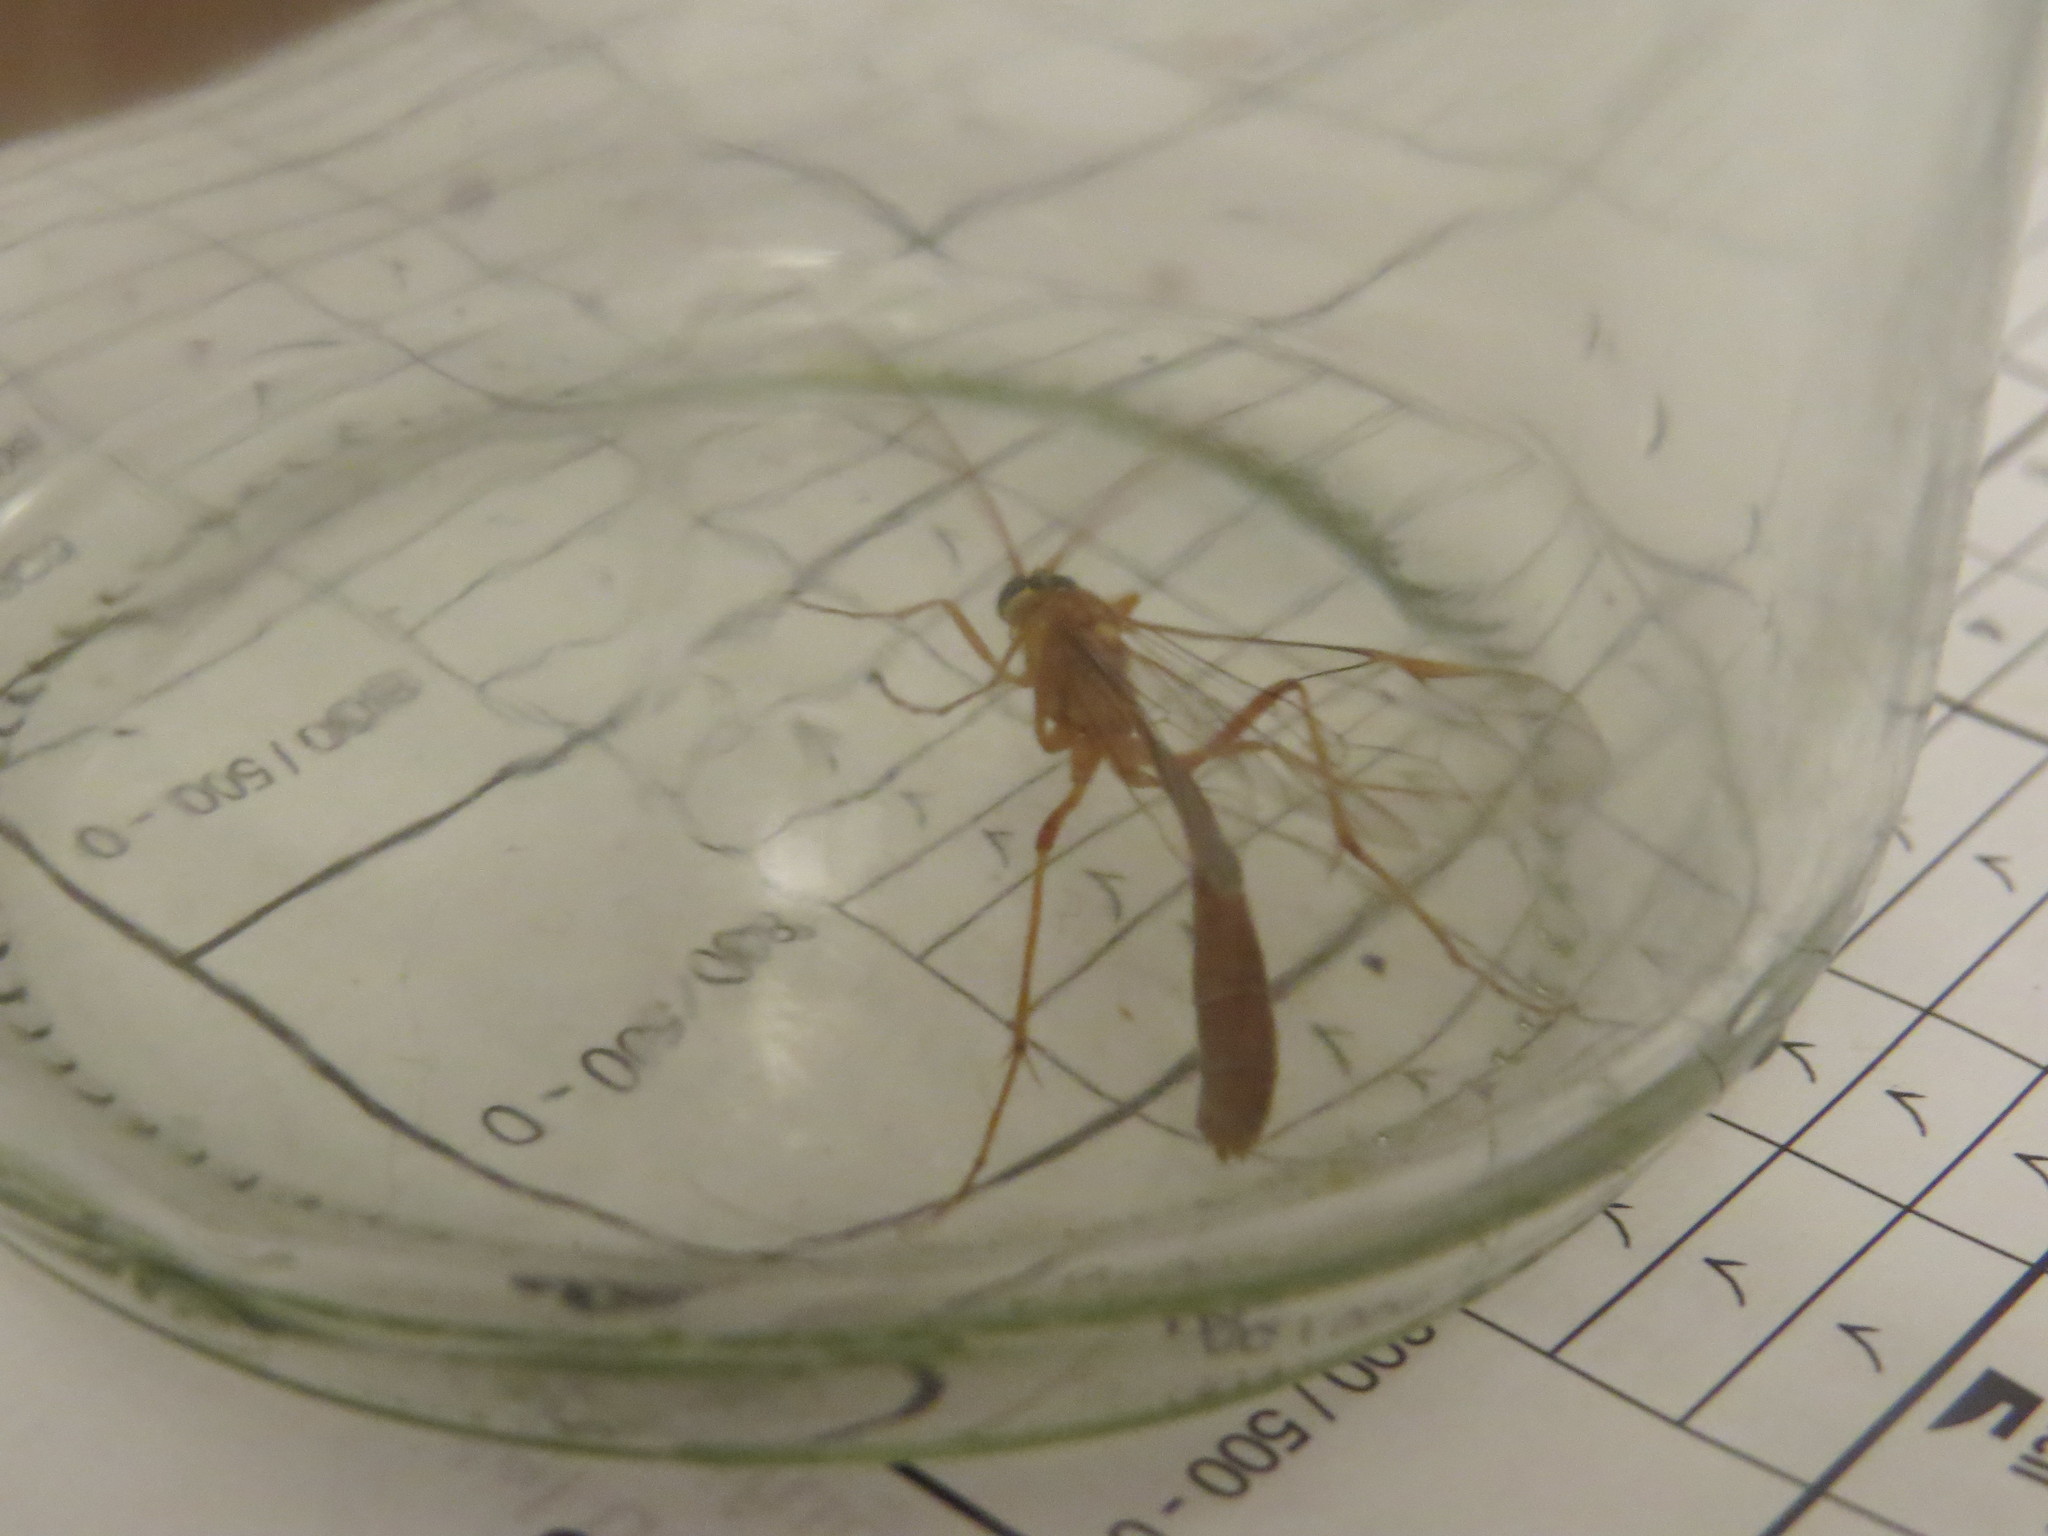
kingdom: Animalia
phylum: Arthropoda
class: Insecta
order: Hymenoptera
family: Ichneumonidae
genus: Ophion
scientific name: Ophion
